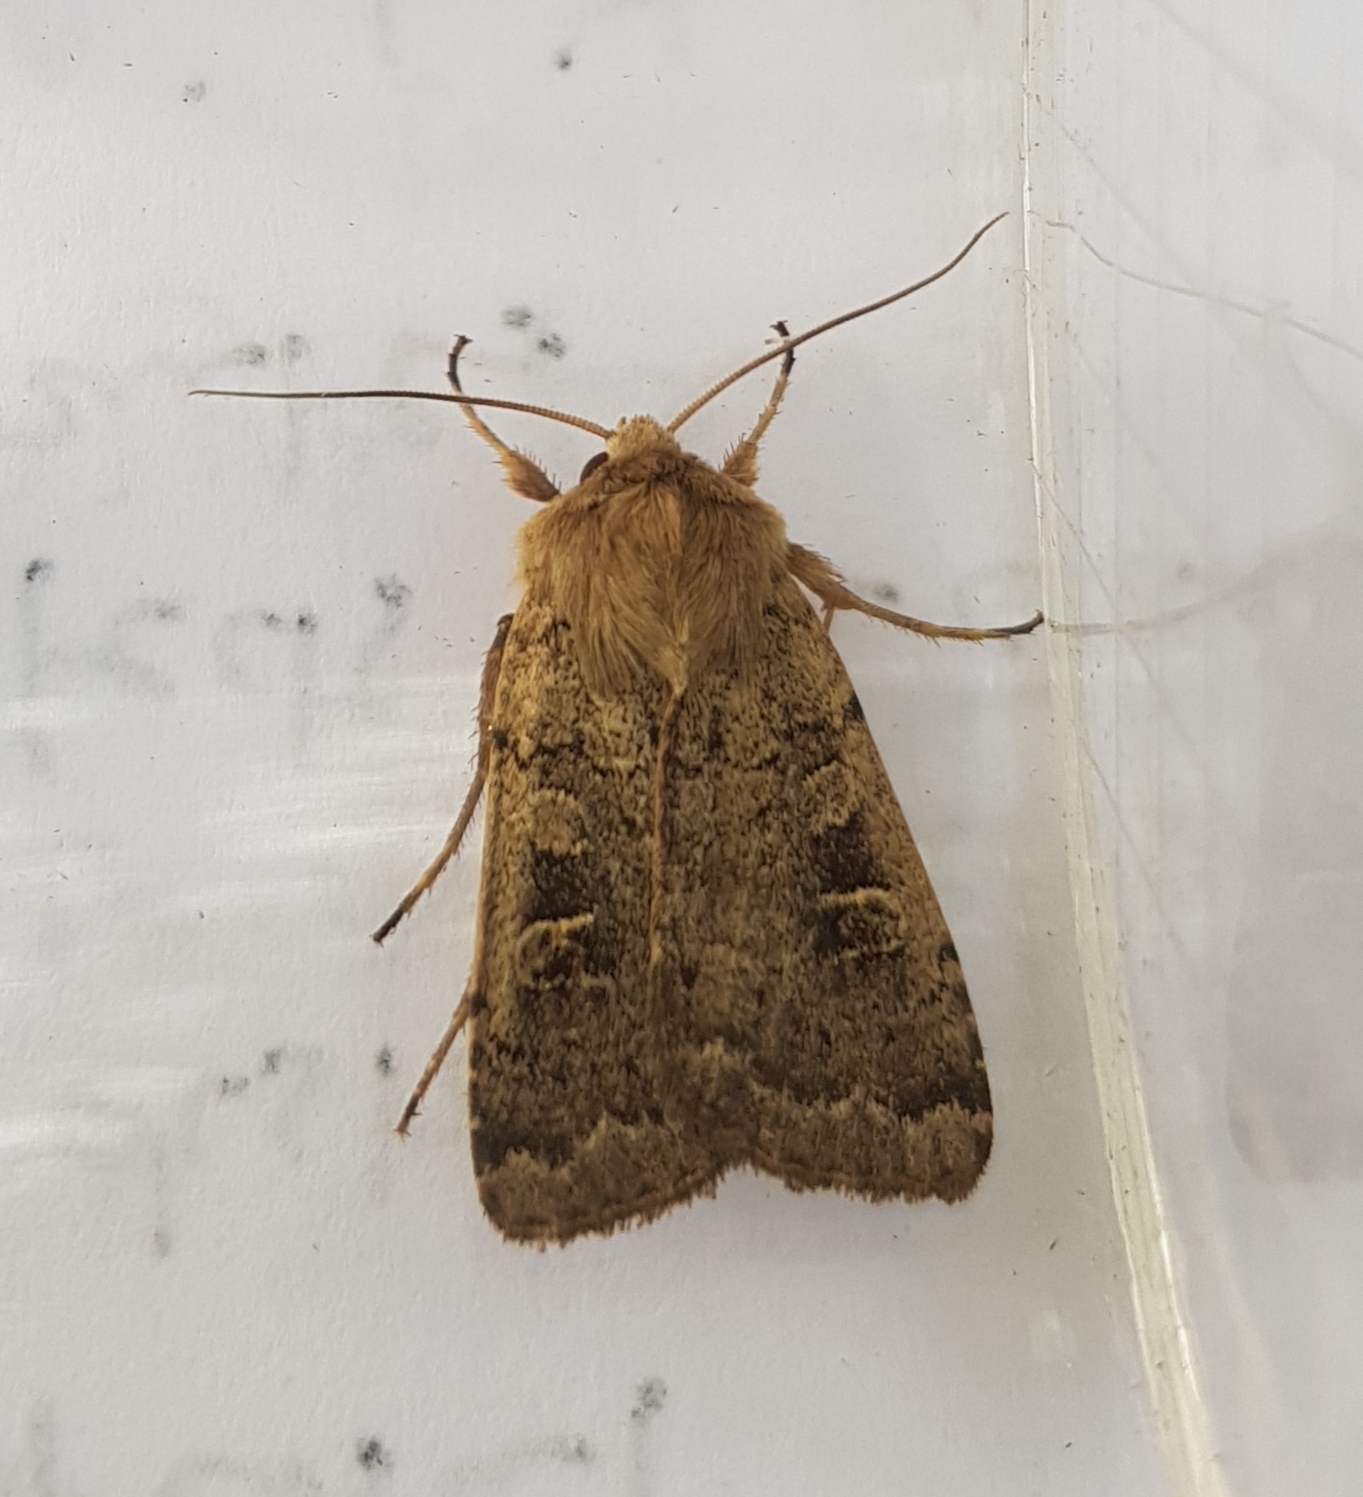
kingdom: Animalia
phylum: Arthropoda
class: Insecta
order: Lepidoptera
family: Noctuidae
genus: Xestia
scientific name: Xestia xanthographa
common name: Square-spot rustic
